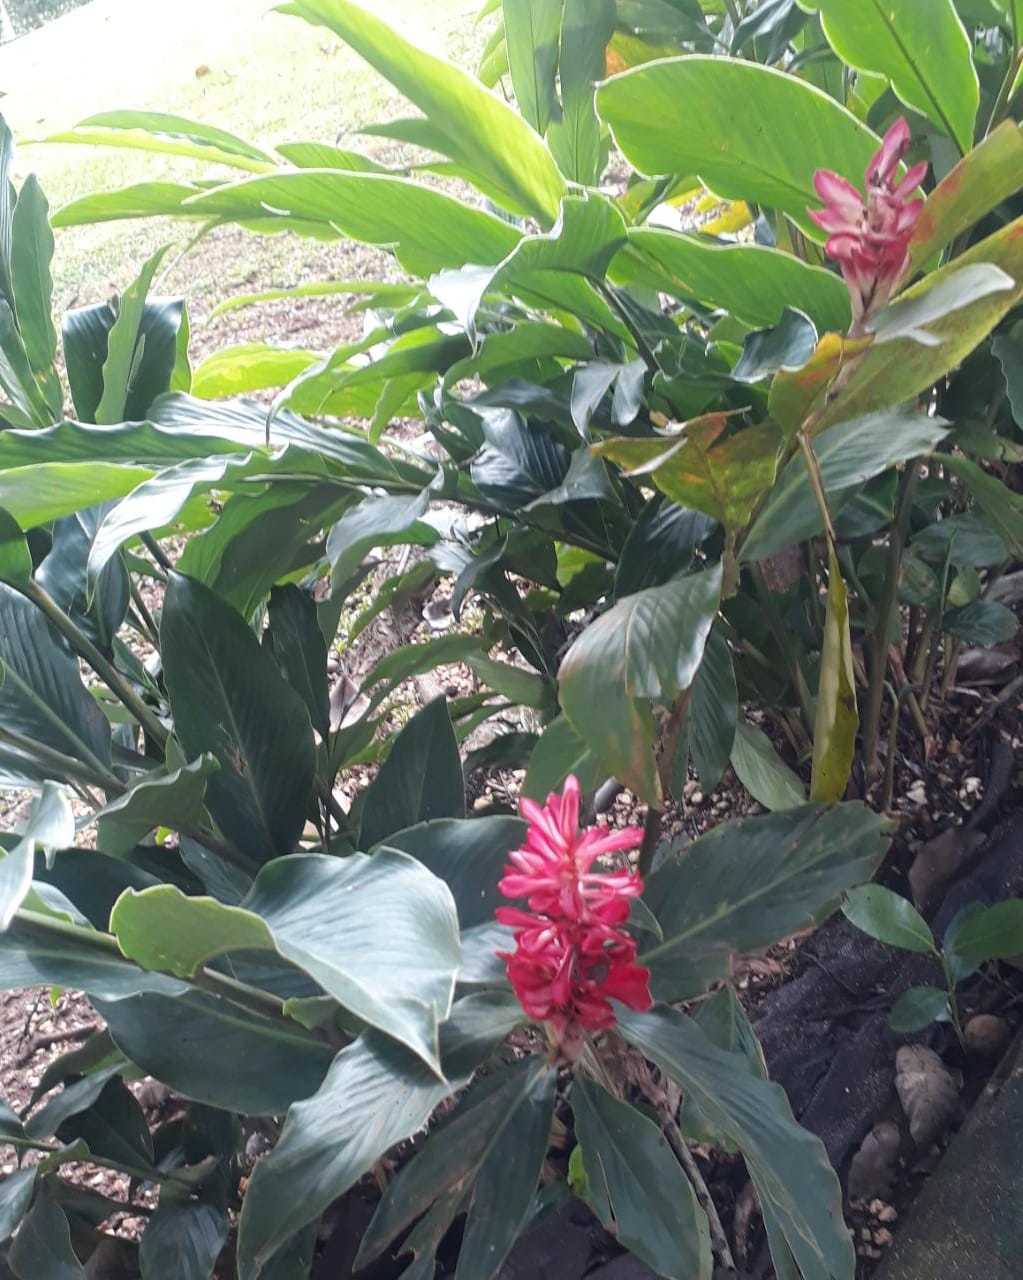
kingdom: Plantae
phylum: Tracheophyta
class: Liliopsida
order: Zingiberales
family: Zingiberaceae
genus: Alpinia
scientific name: Alpinia purpurata
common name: Red ginger
